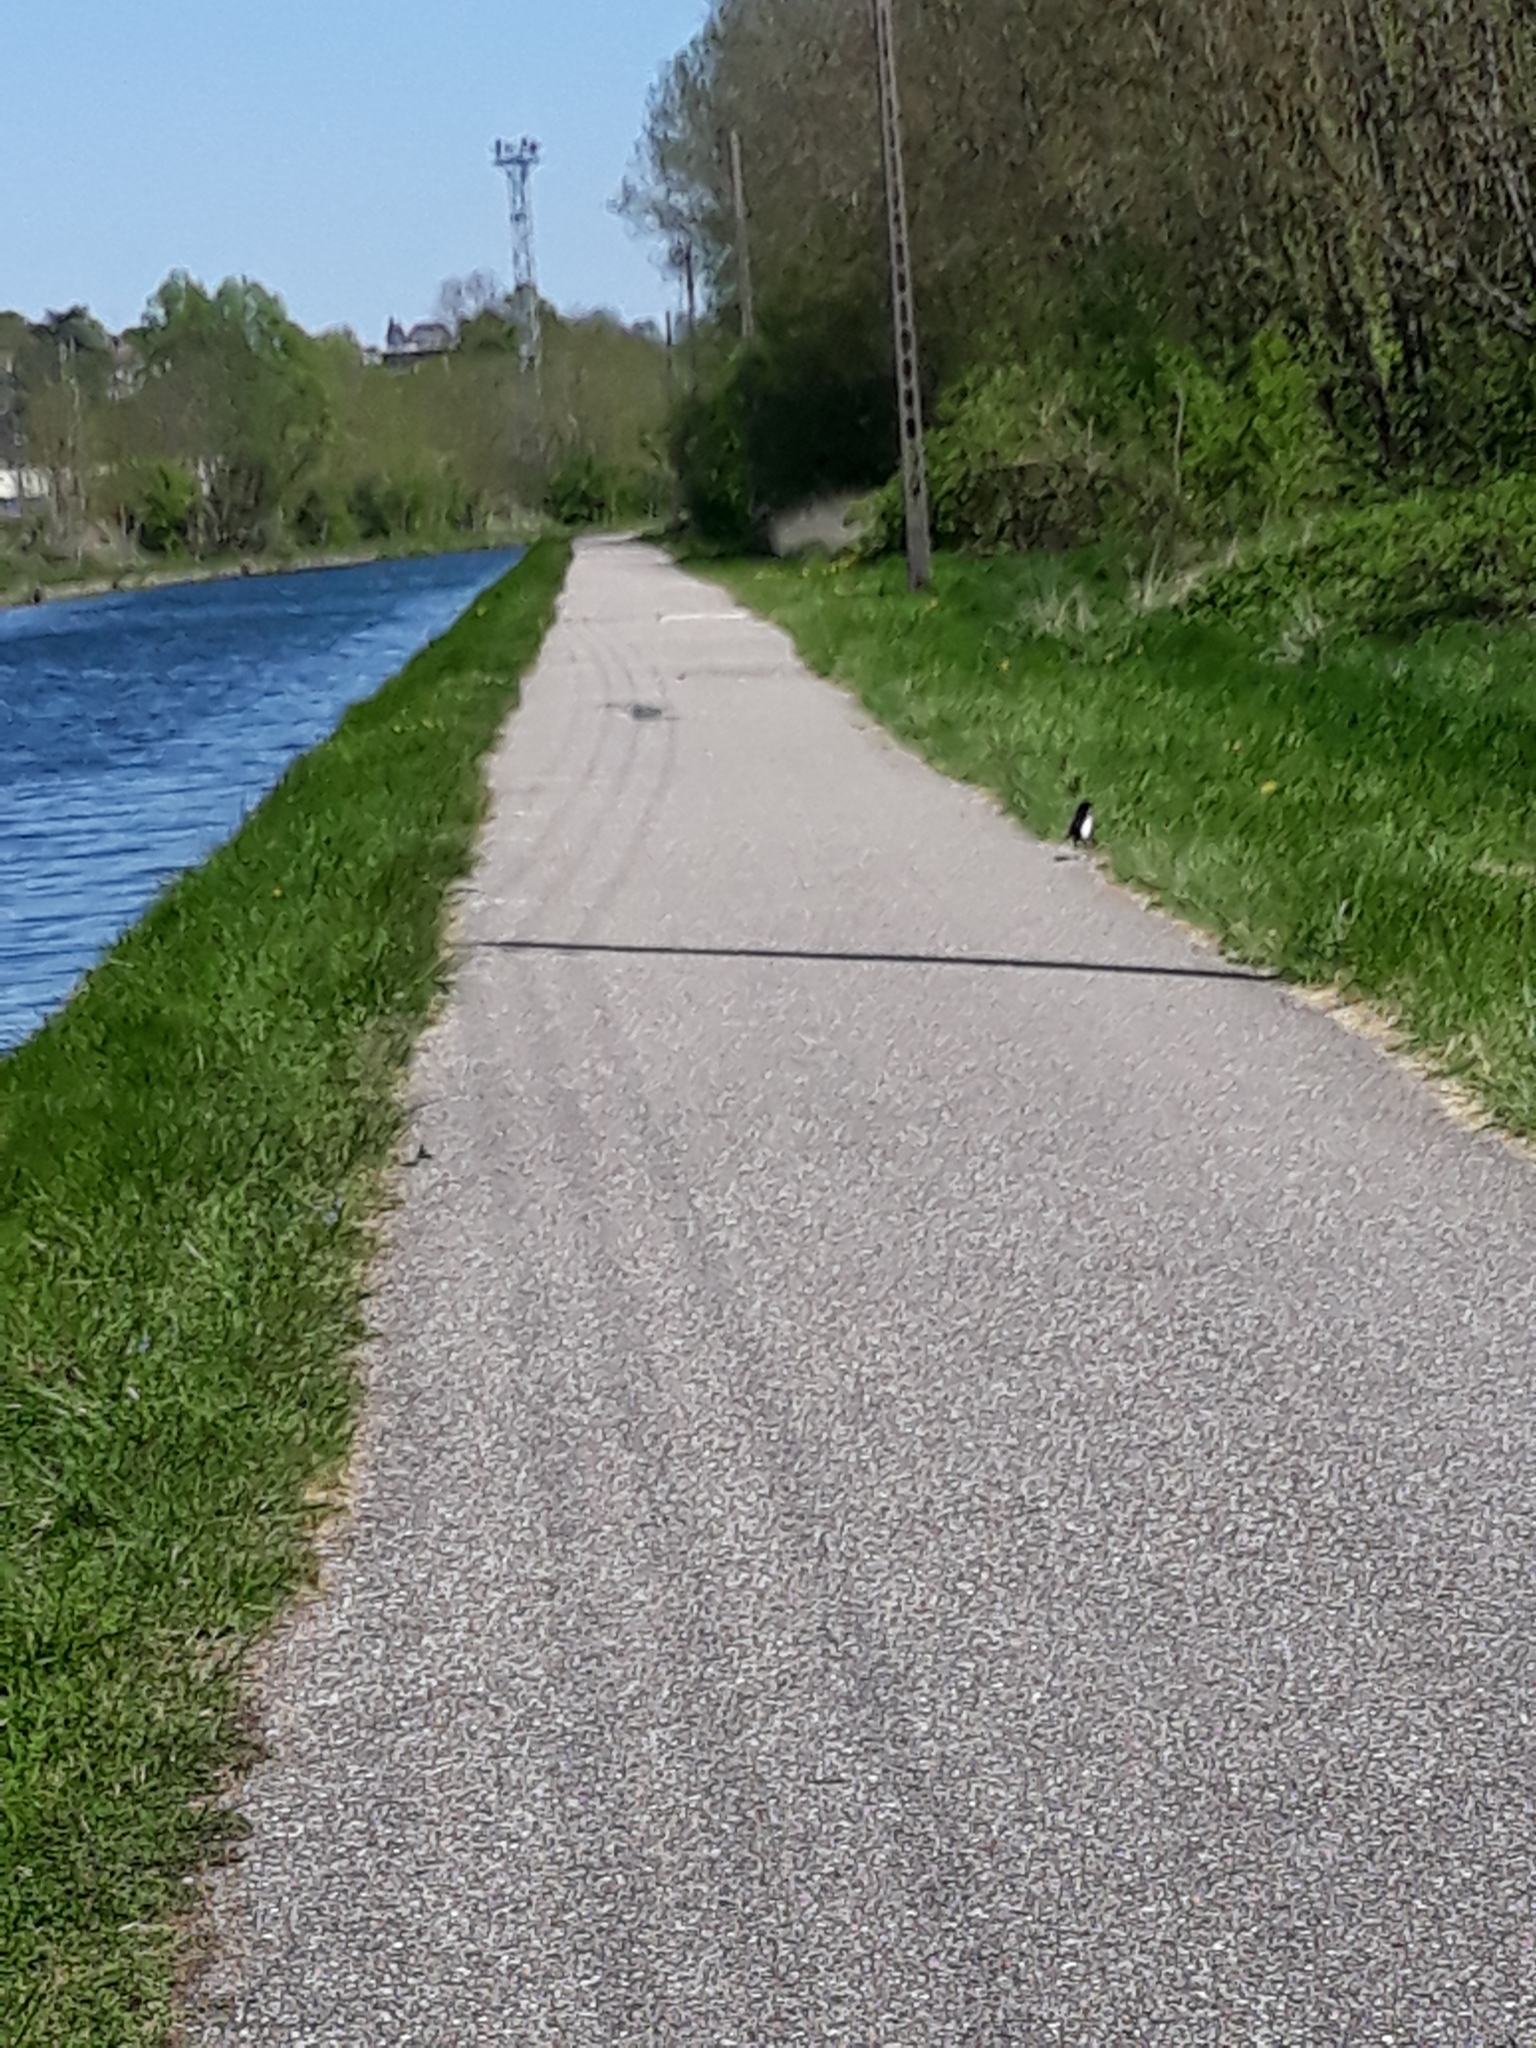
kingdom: Animalia
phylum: Chordata
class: Aves
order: Passeriformes
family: Corvidae
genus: Pica
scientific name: Pica pica
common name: Eurasian magpie
